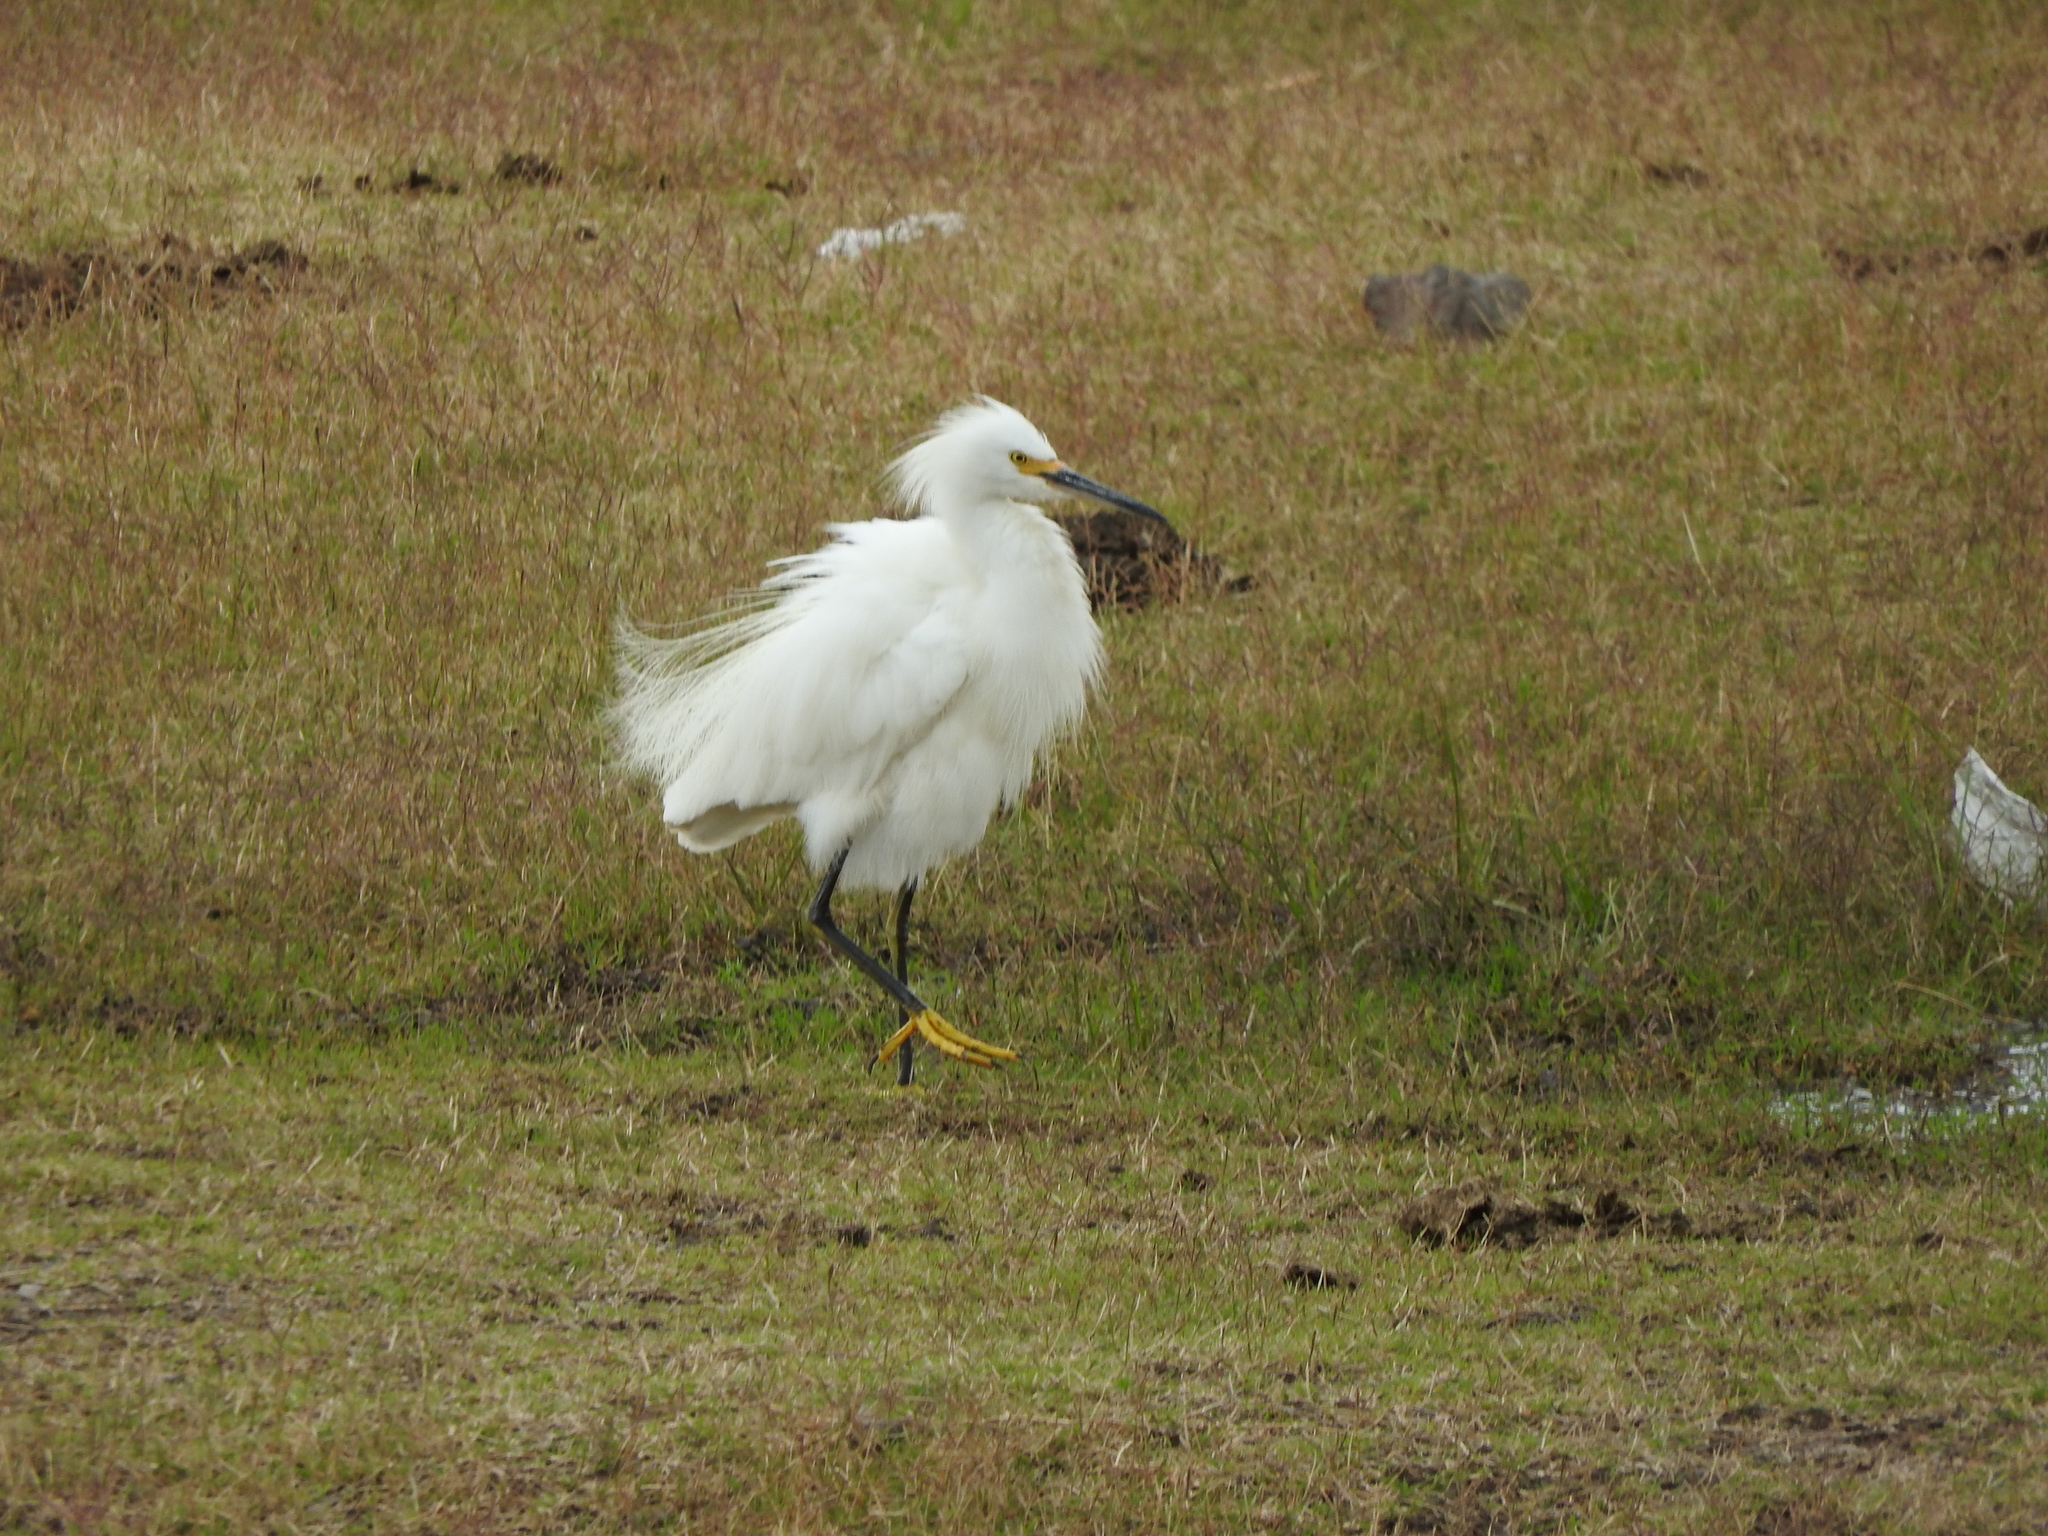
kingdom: Animalia
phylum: Chordata
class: Aves
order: Pelecaniformes
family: Ardeidae
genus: Egretta
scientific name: Egretta thula
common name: Snowy egret
